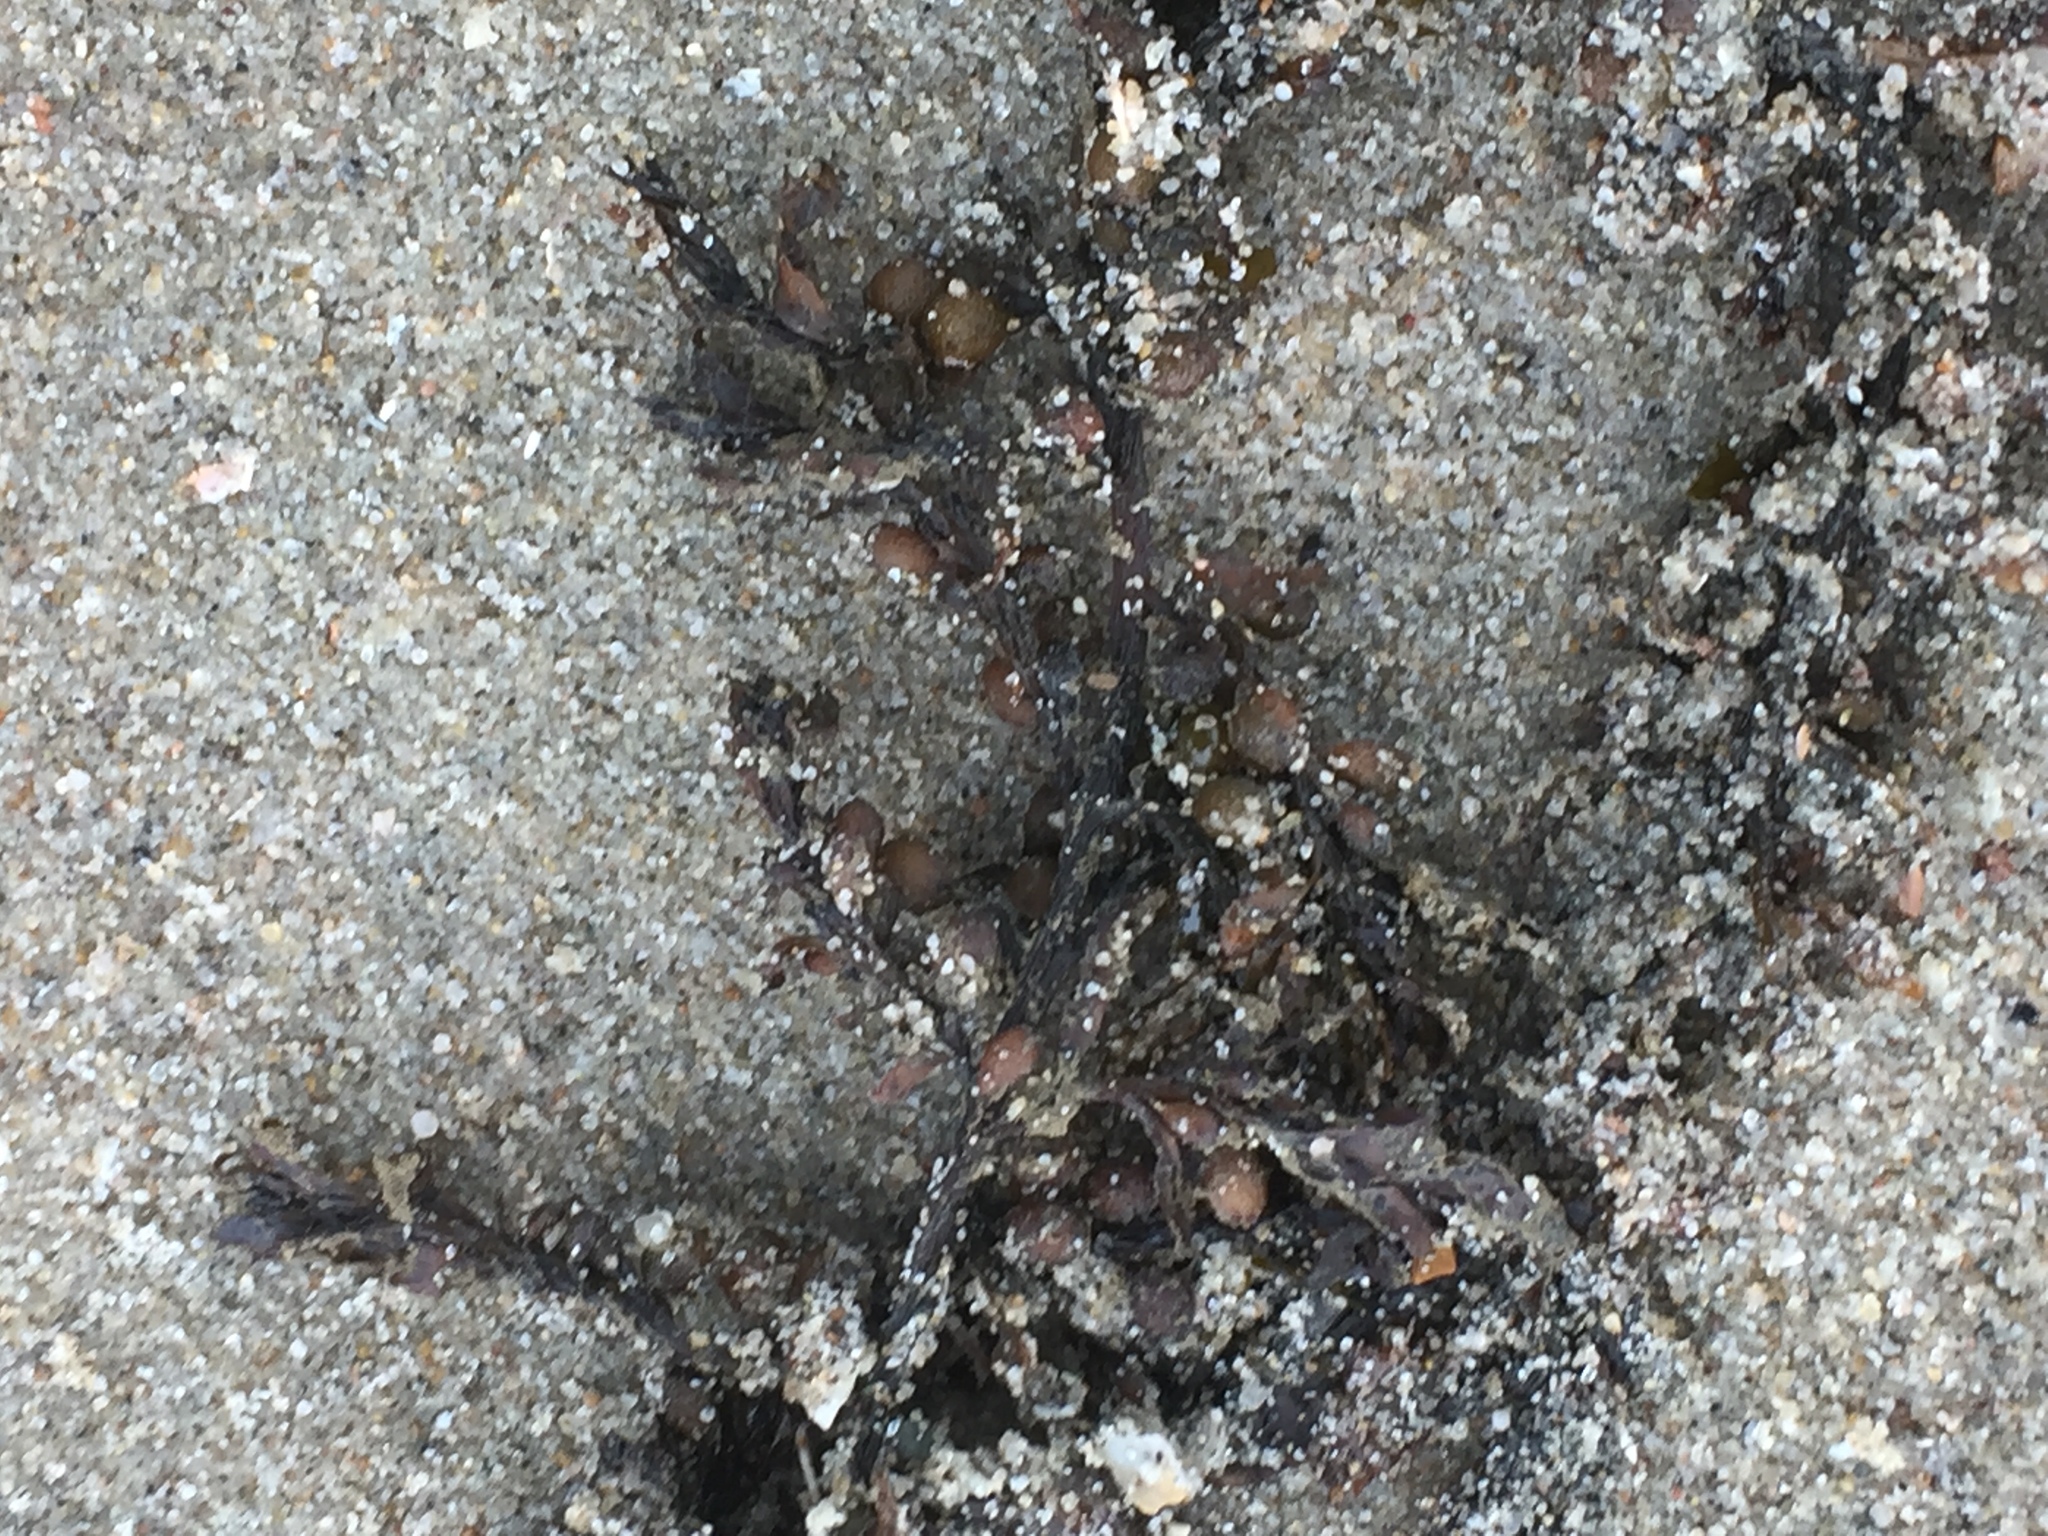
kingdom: Chromista
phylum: Ochrophyta
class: Phaeophyceae
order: Fucales
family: Sargassaceae
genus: Sargassum
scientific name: Sargassum muticum
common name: Japweed
